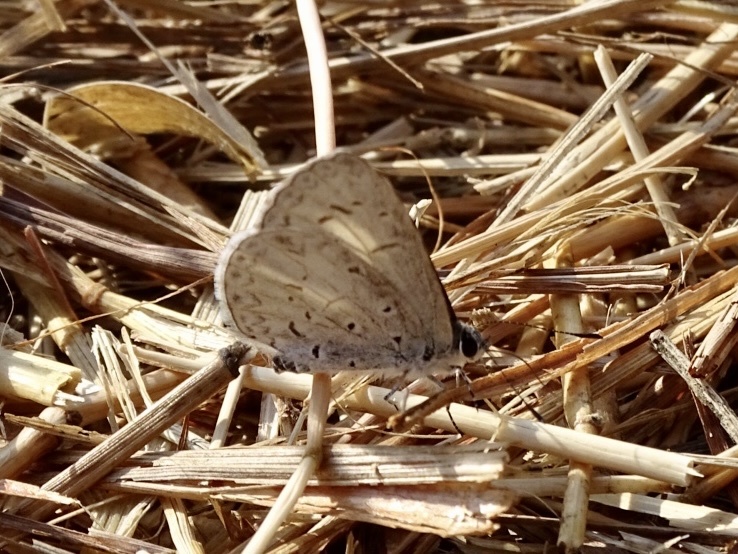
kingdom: Animalia
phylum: Arthropoda
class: Insecta
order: Lepidoptera
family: Lycaenidae
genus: Acytolepis
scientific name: Acytolepis puspa
